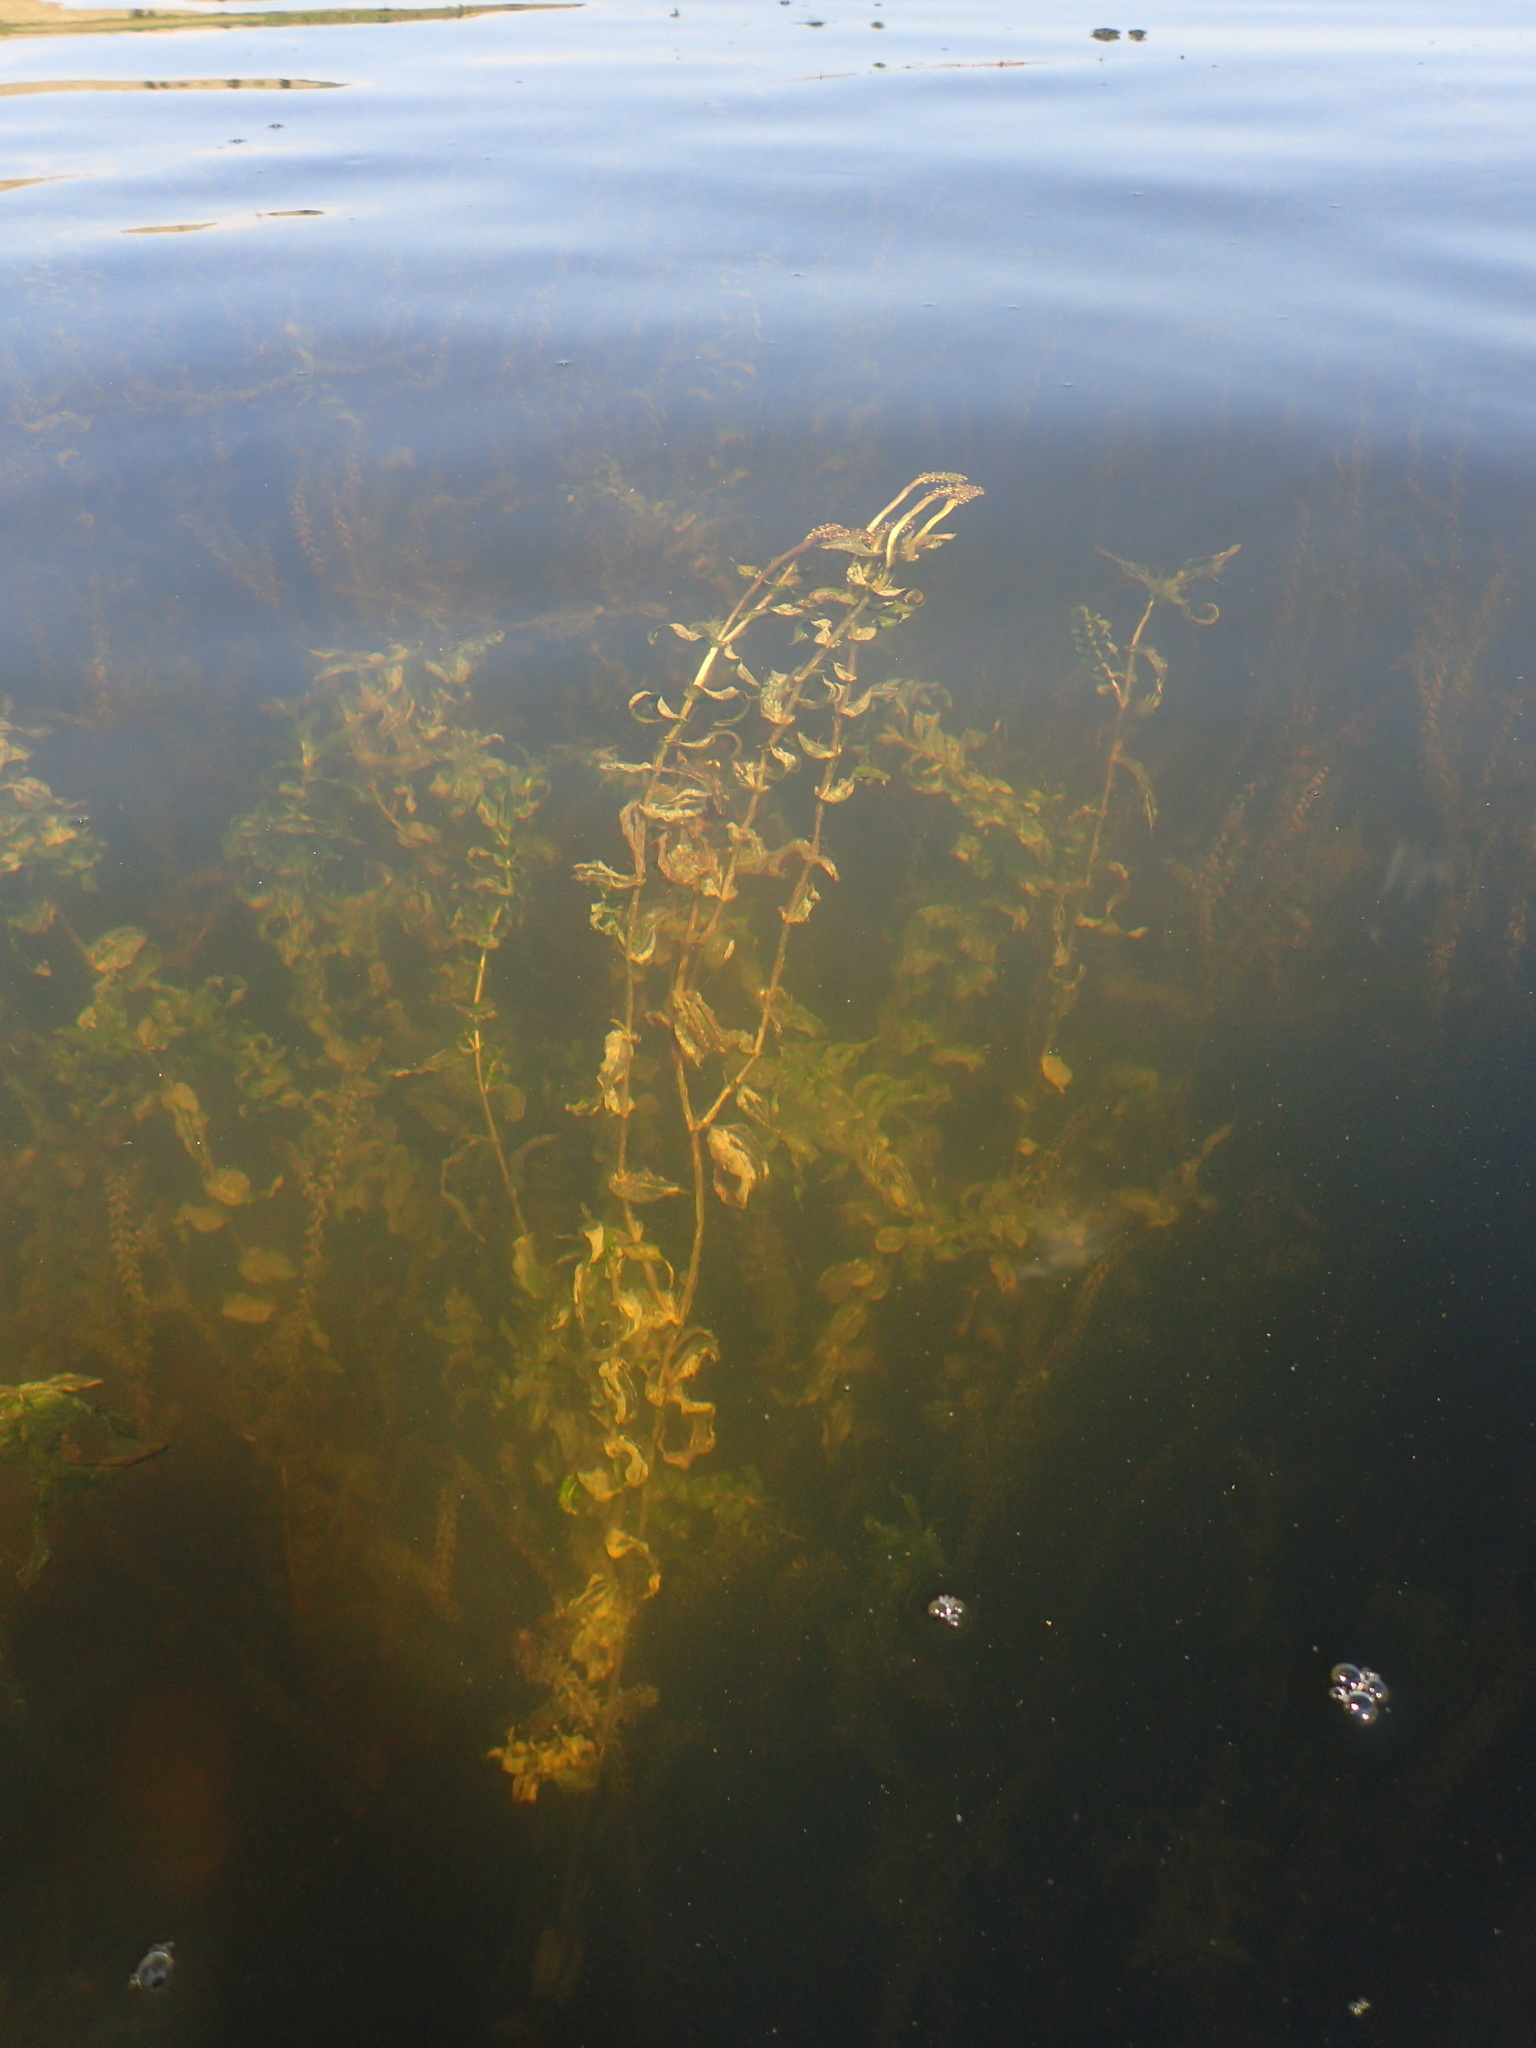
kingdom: Plantae
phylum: Tracheophyta
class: Liliopsida
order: Alismatales
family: Potamogetonaceae
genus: Potamogeton
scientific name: Potamogeton richardsonii
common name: Richardson's pondweed
